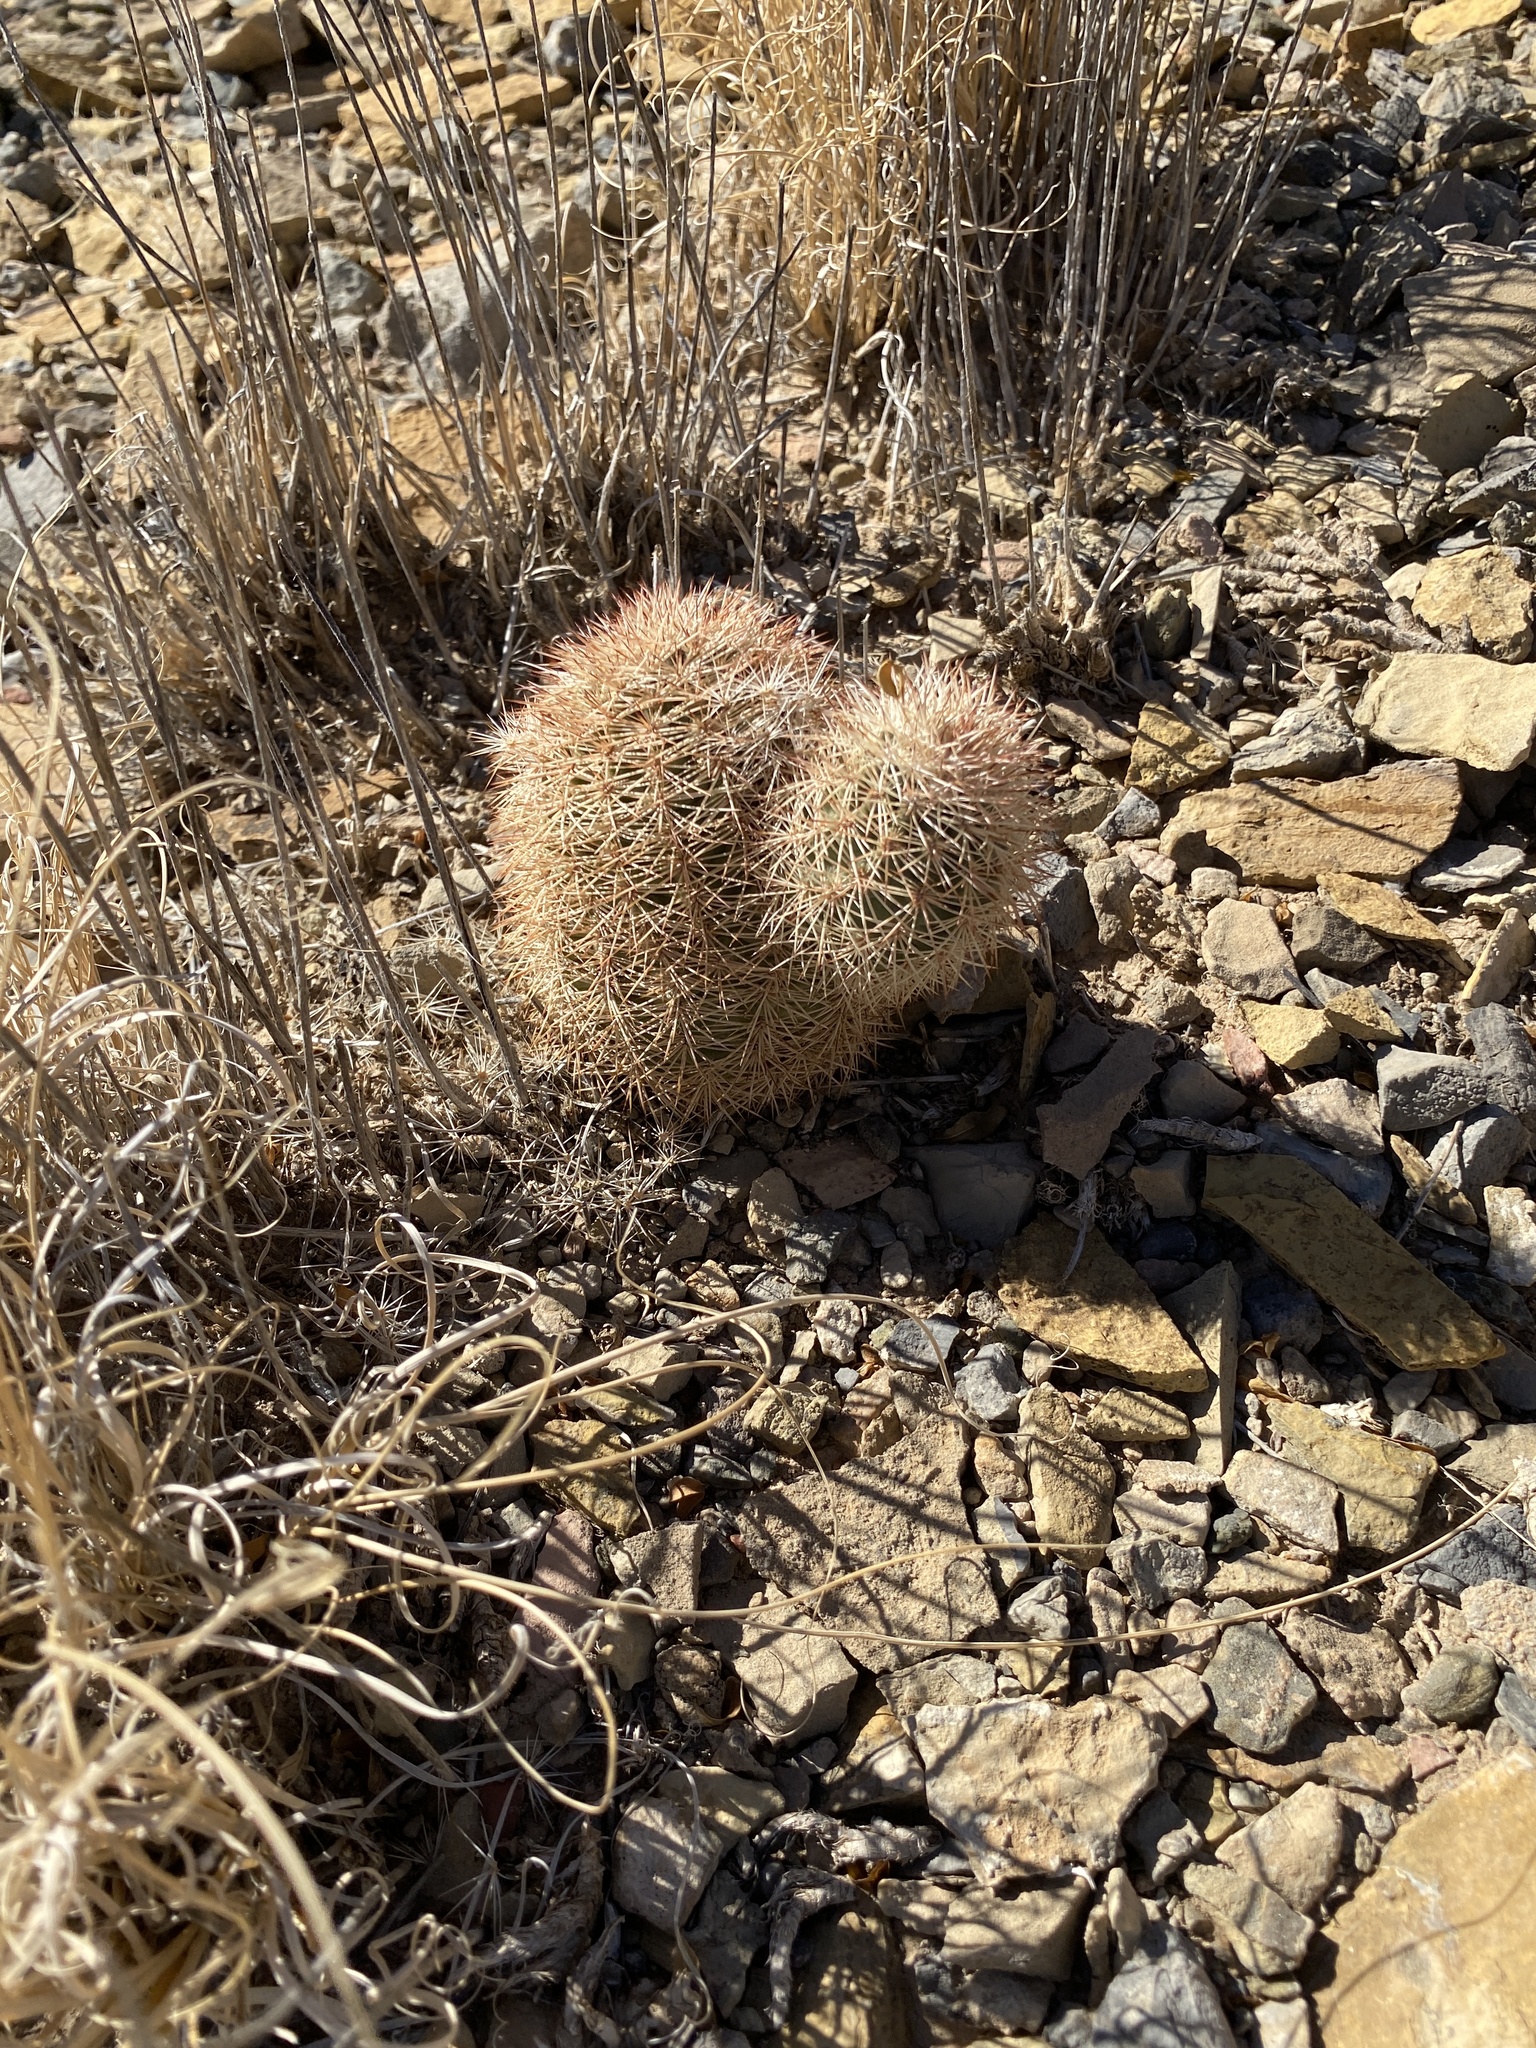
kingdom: Plantae
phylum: Tracheophyta
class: Magnoliopsida
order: Caryophyllales
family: Cactaceae
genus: Echinocereus
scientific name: Echinocereus dasyacanthus
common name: Spiny hedgehog cactus
